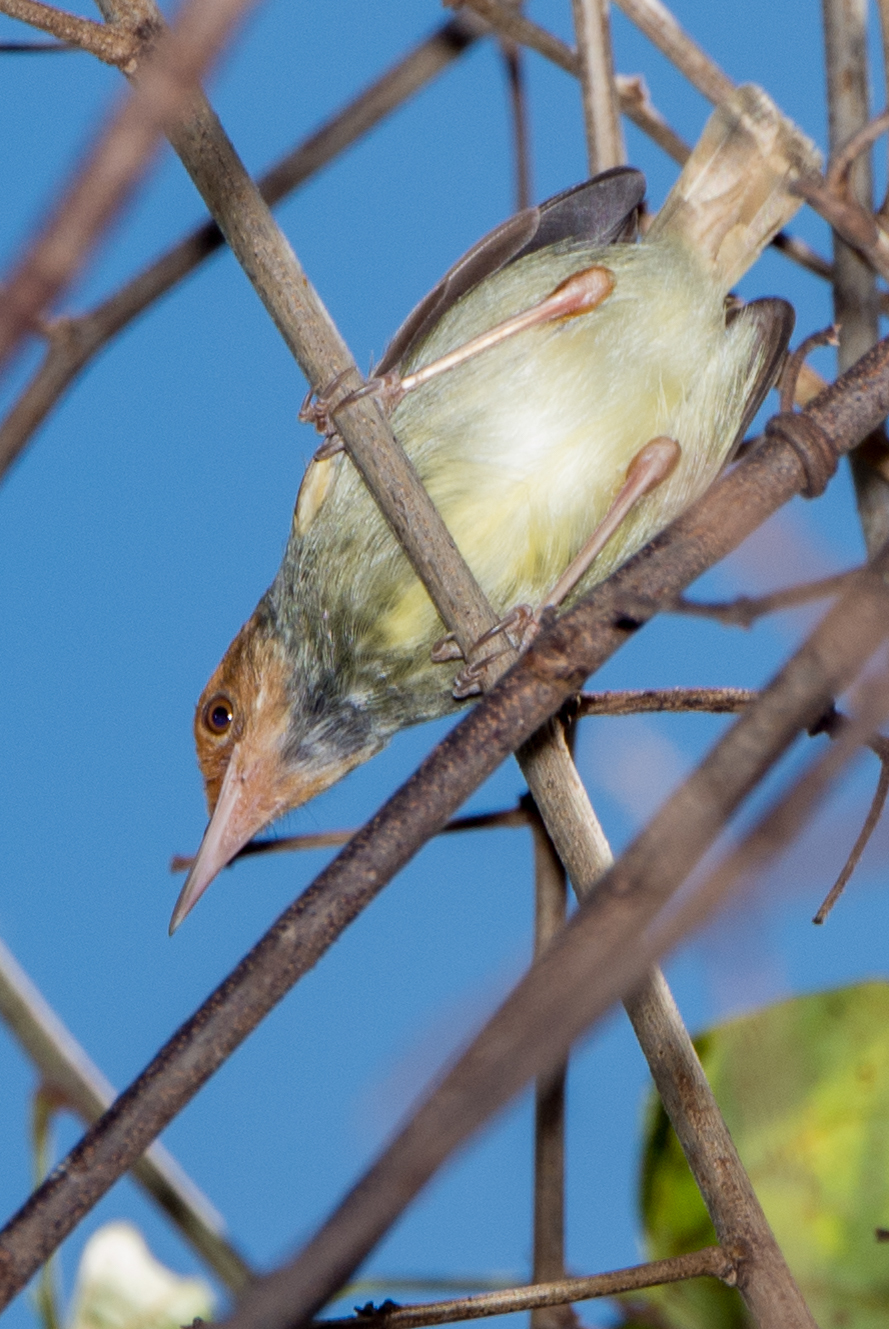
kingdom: Animalia
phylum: Chordata
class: Aves
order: Passeriformes
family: Cisticolidae
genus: Orthotomus
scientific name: Orthotomus sepium
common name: Olive-backed tailorbird
